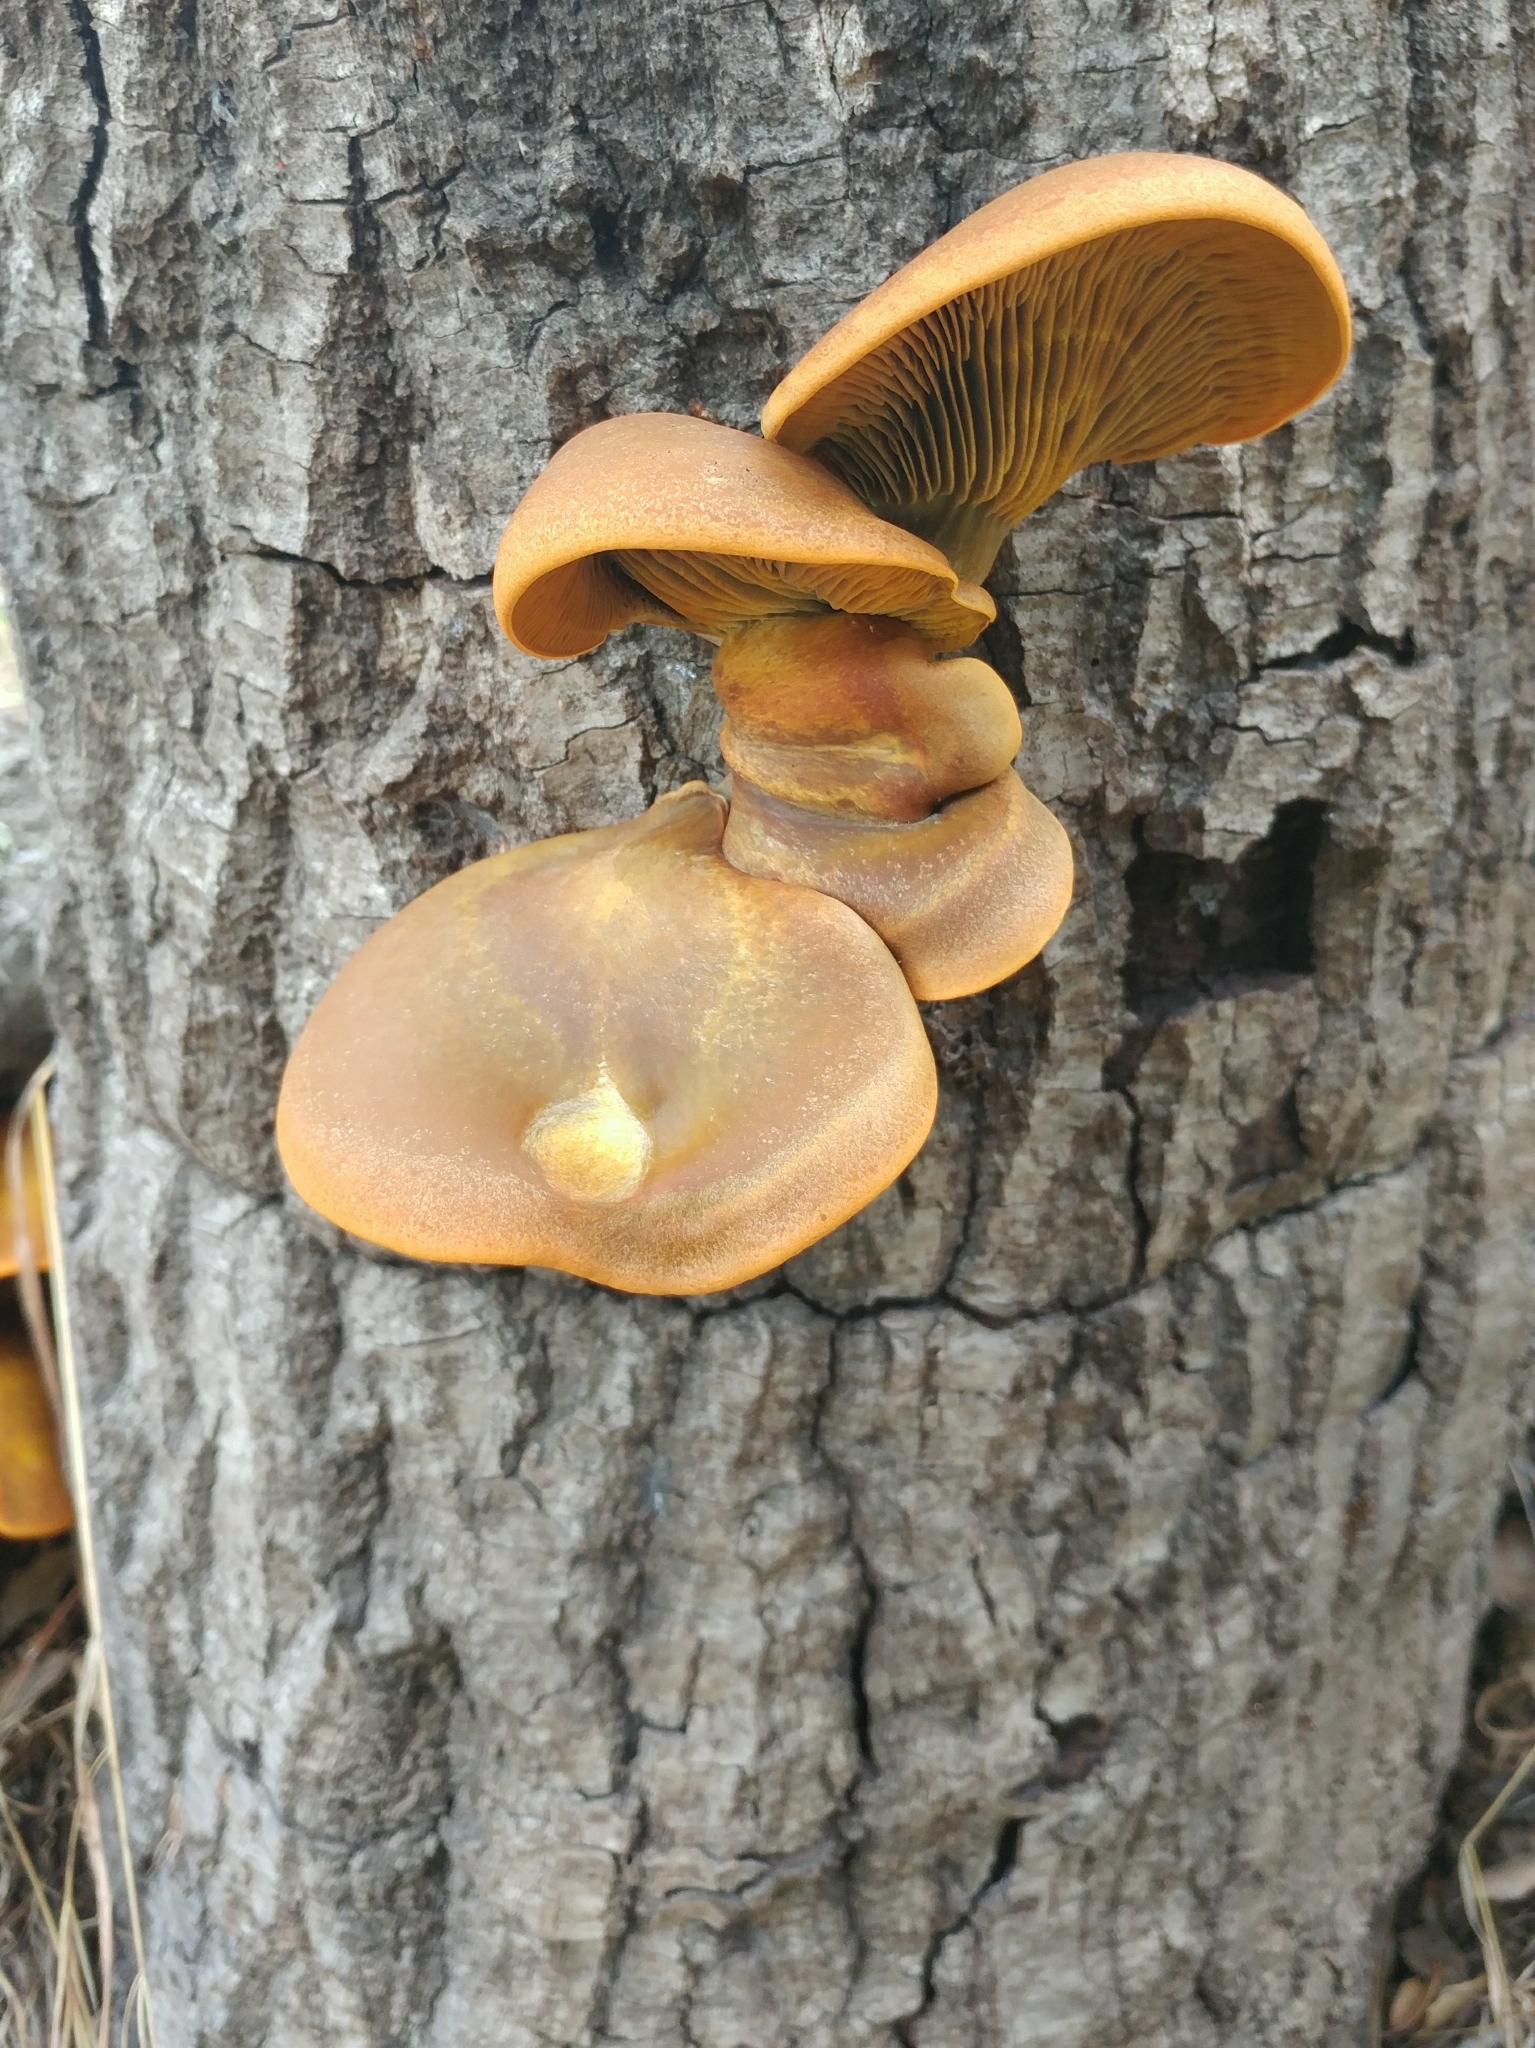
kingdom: Fungi
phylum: Basidiomycota
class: Agaricomycetes
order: Agaricales
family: Omphalotaceae
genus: Omphalotus
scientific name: Omphalotus olivascens
